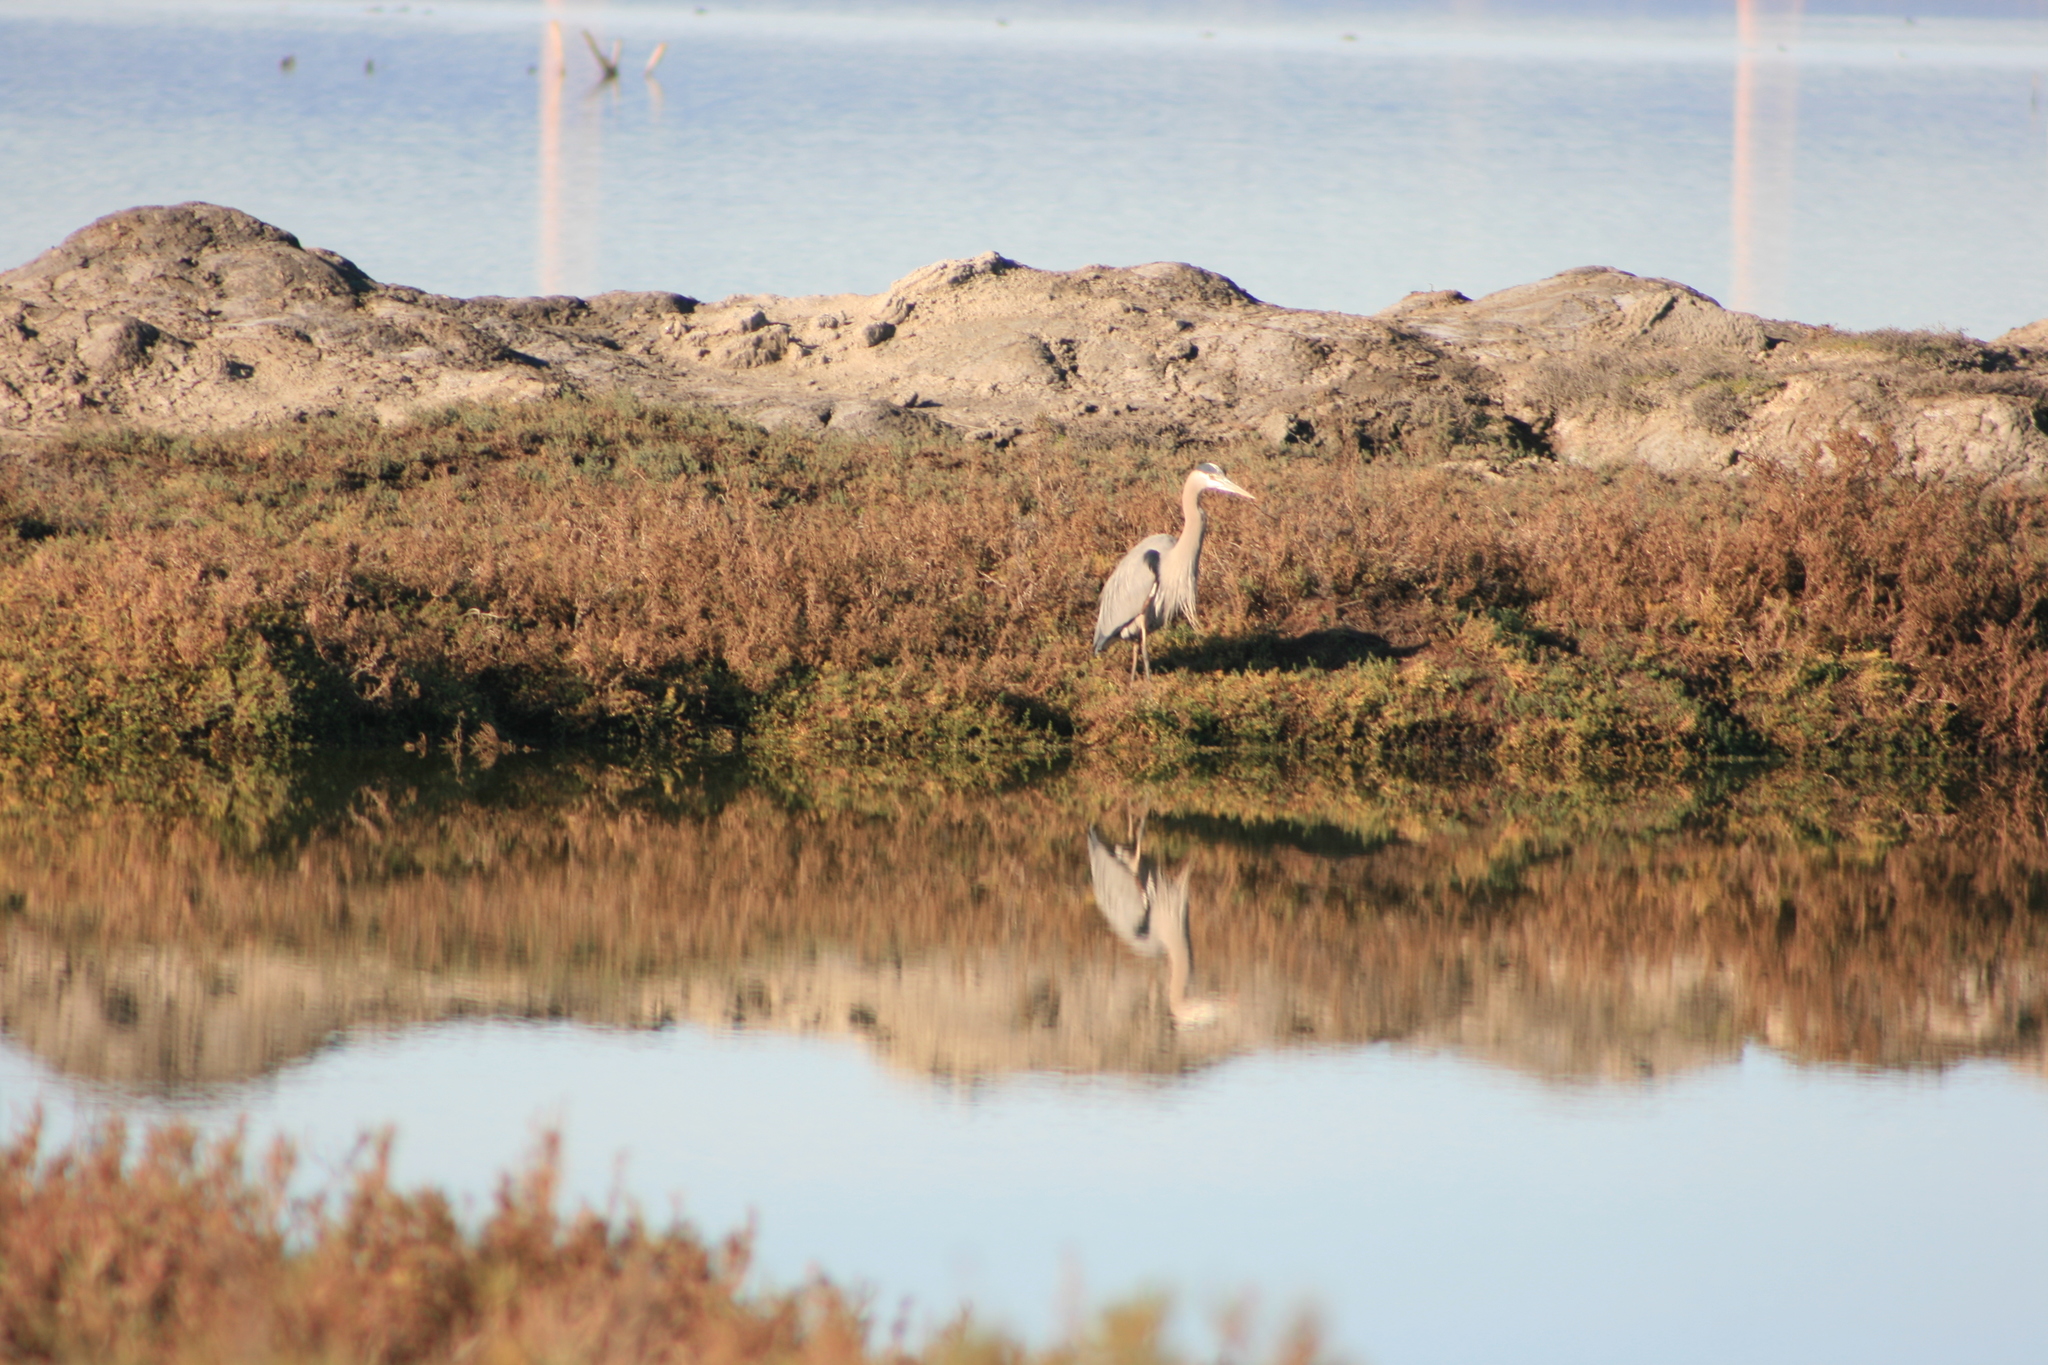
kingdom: Animalia
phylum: Chordata
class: Aves
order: Pelecaniformes
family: Ardeidae
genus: Ardea
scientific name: Ardea herodias
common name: Great blue heron
